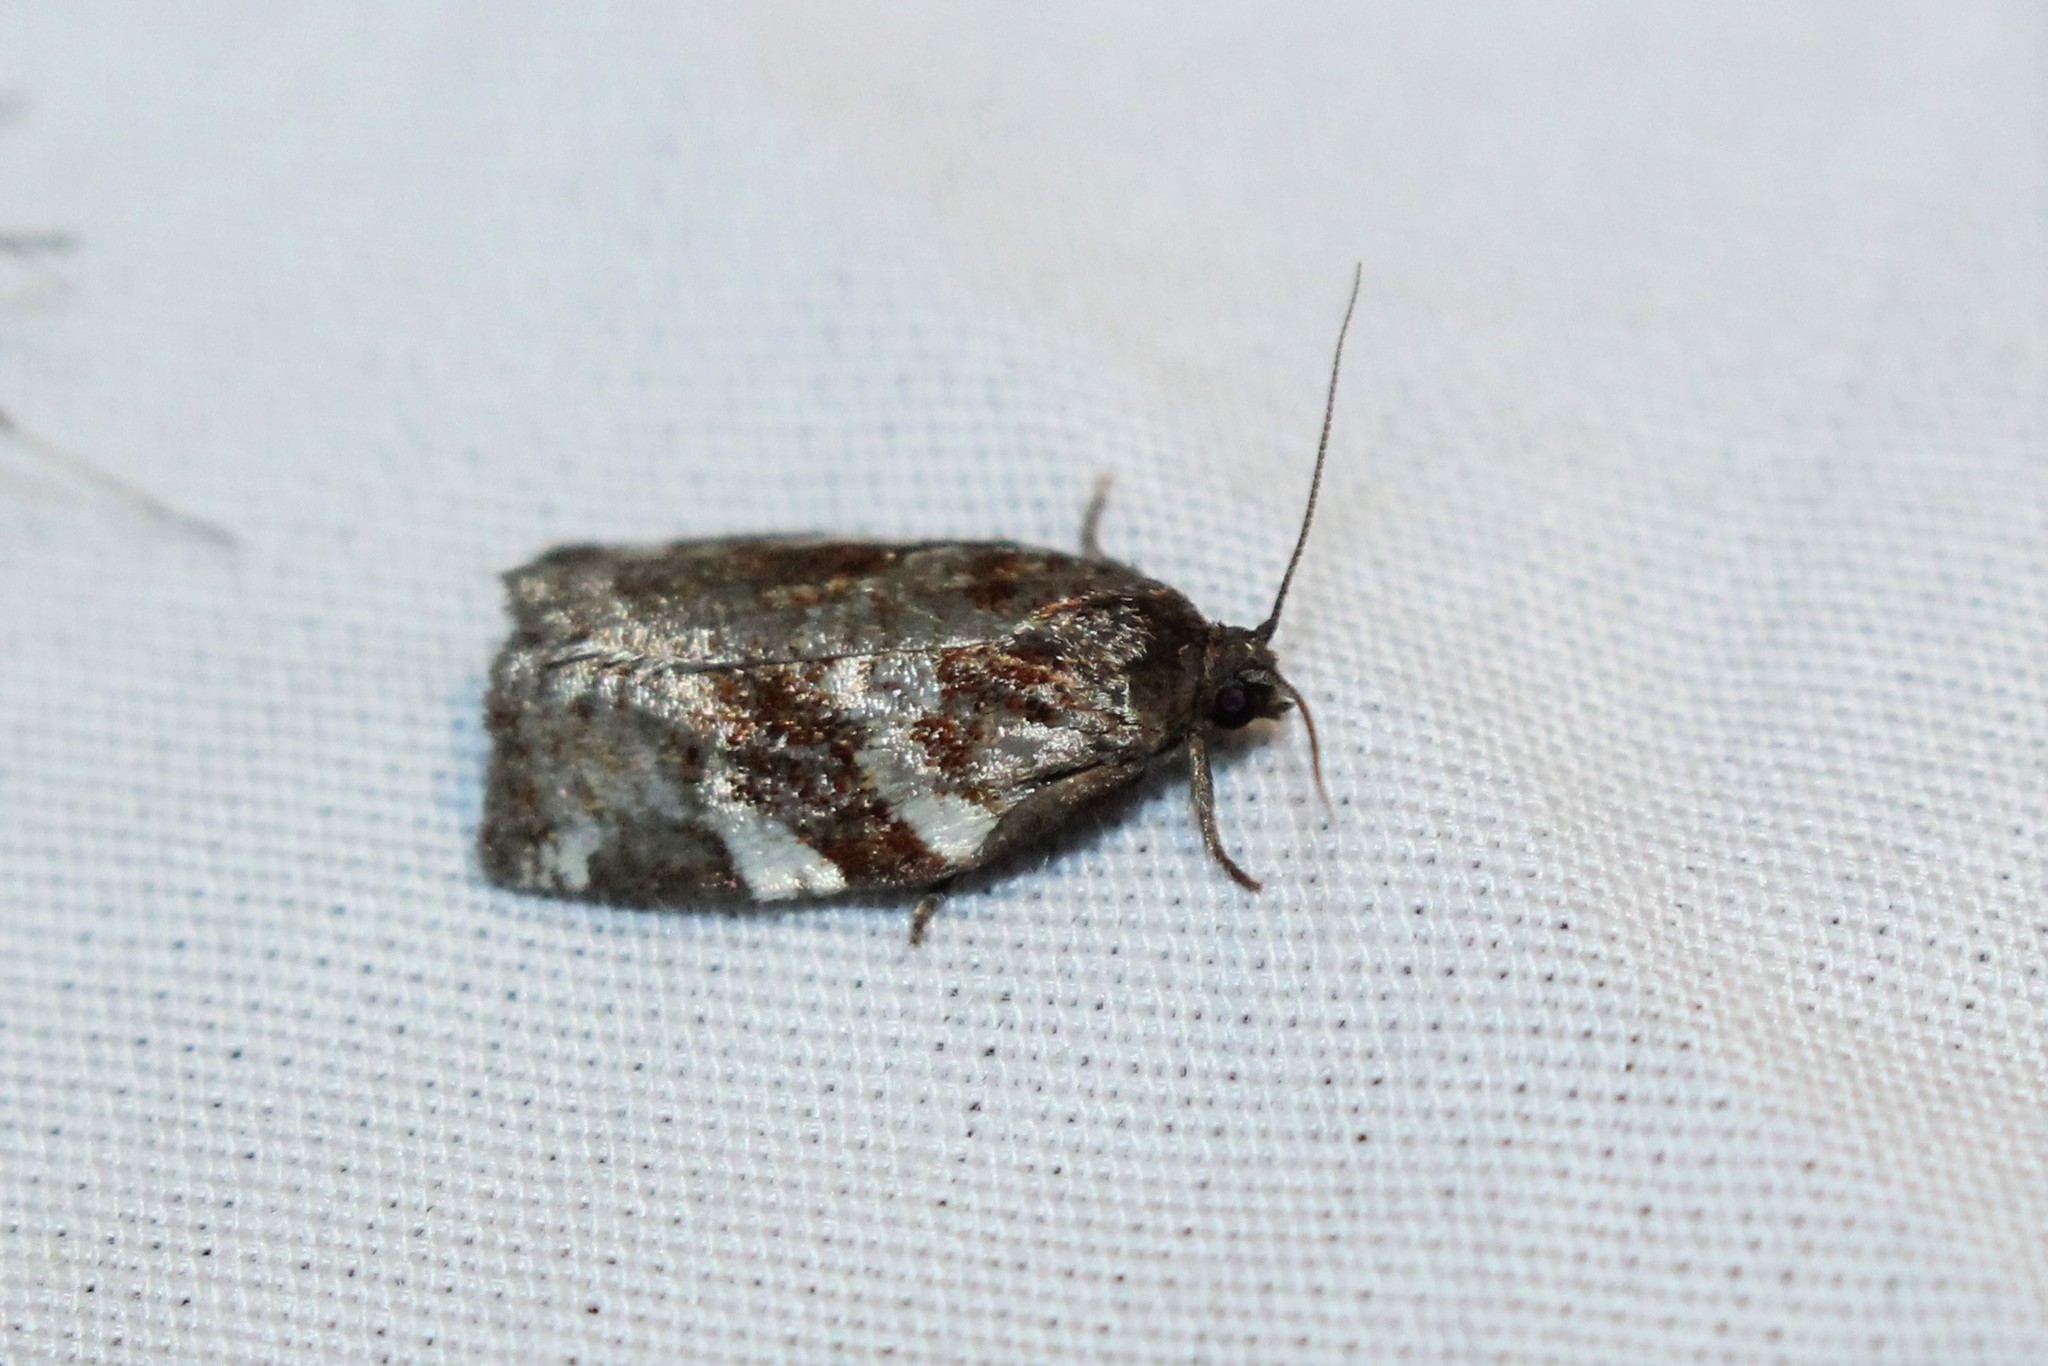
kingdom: Animalia
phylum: Arthropoda
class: Insecta
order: Lepidoptera
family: Tortricidae
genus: Archips
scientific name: Archips mortuana
